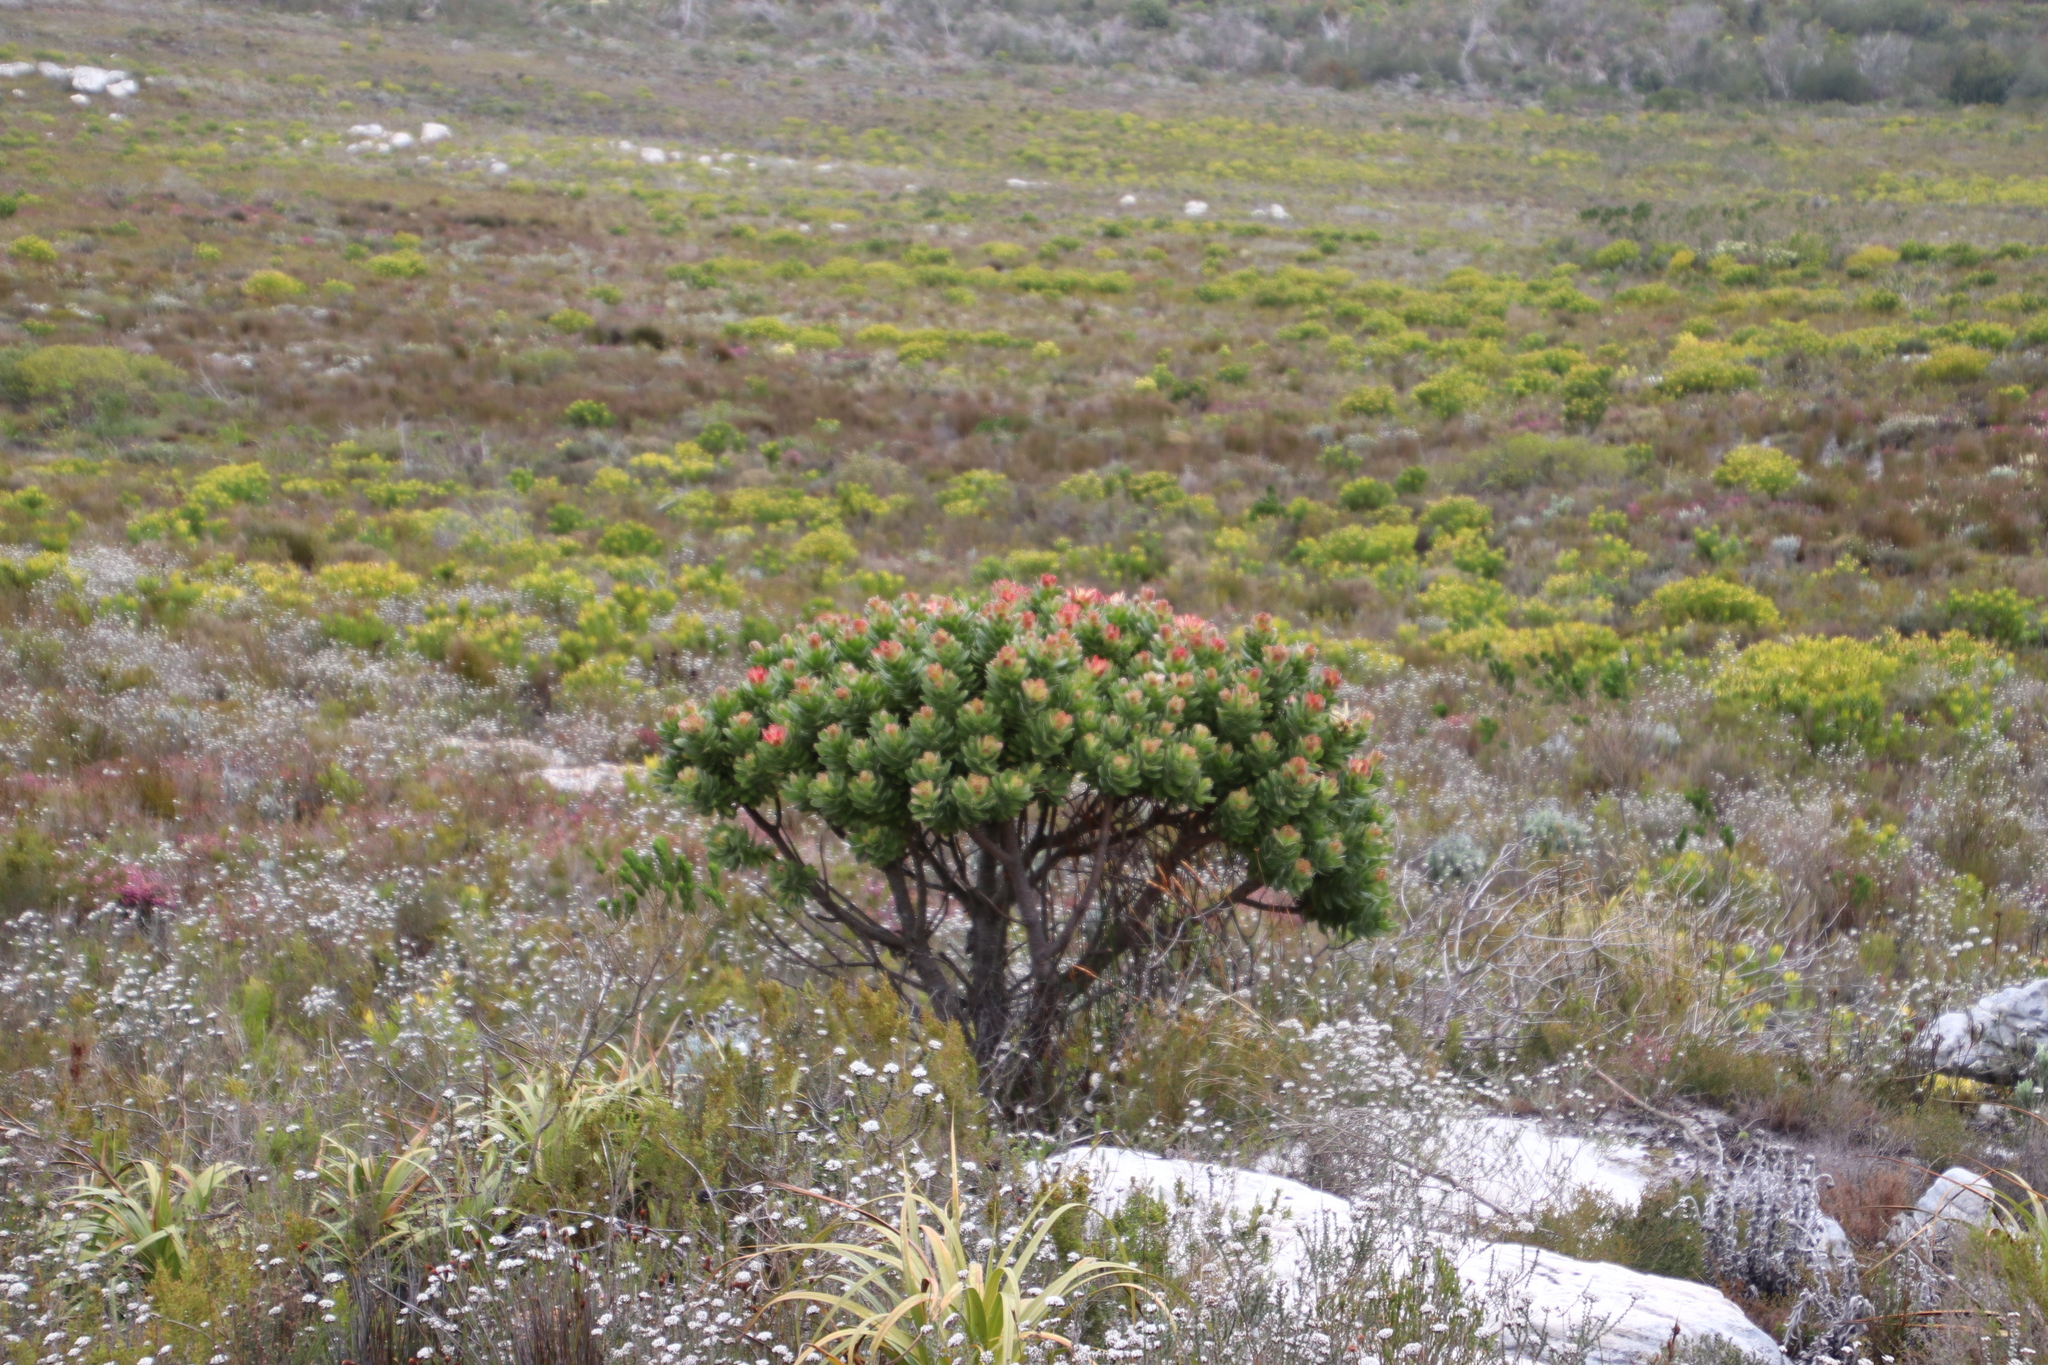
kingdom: Plantae
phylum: Tracheophyta
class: Magnoliopsida
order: Proteales
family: Proteaceae
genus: Mimetes
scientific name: Mimetes fimbriifolius
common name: Fringed bottlebrush
